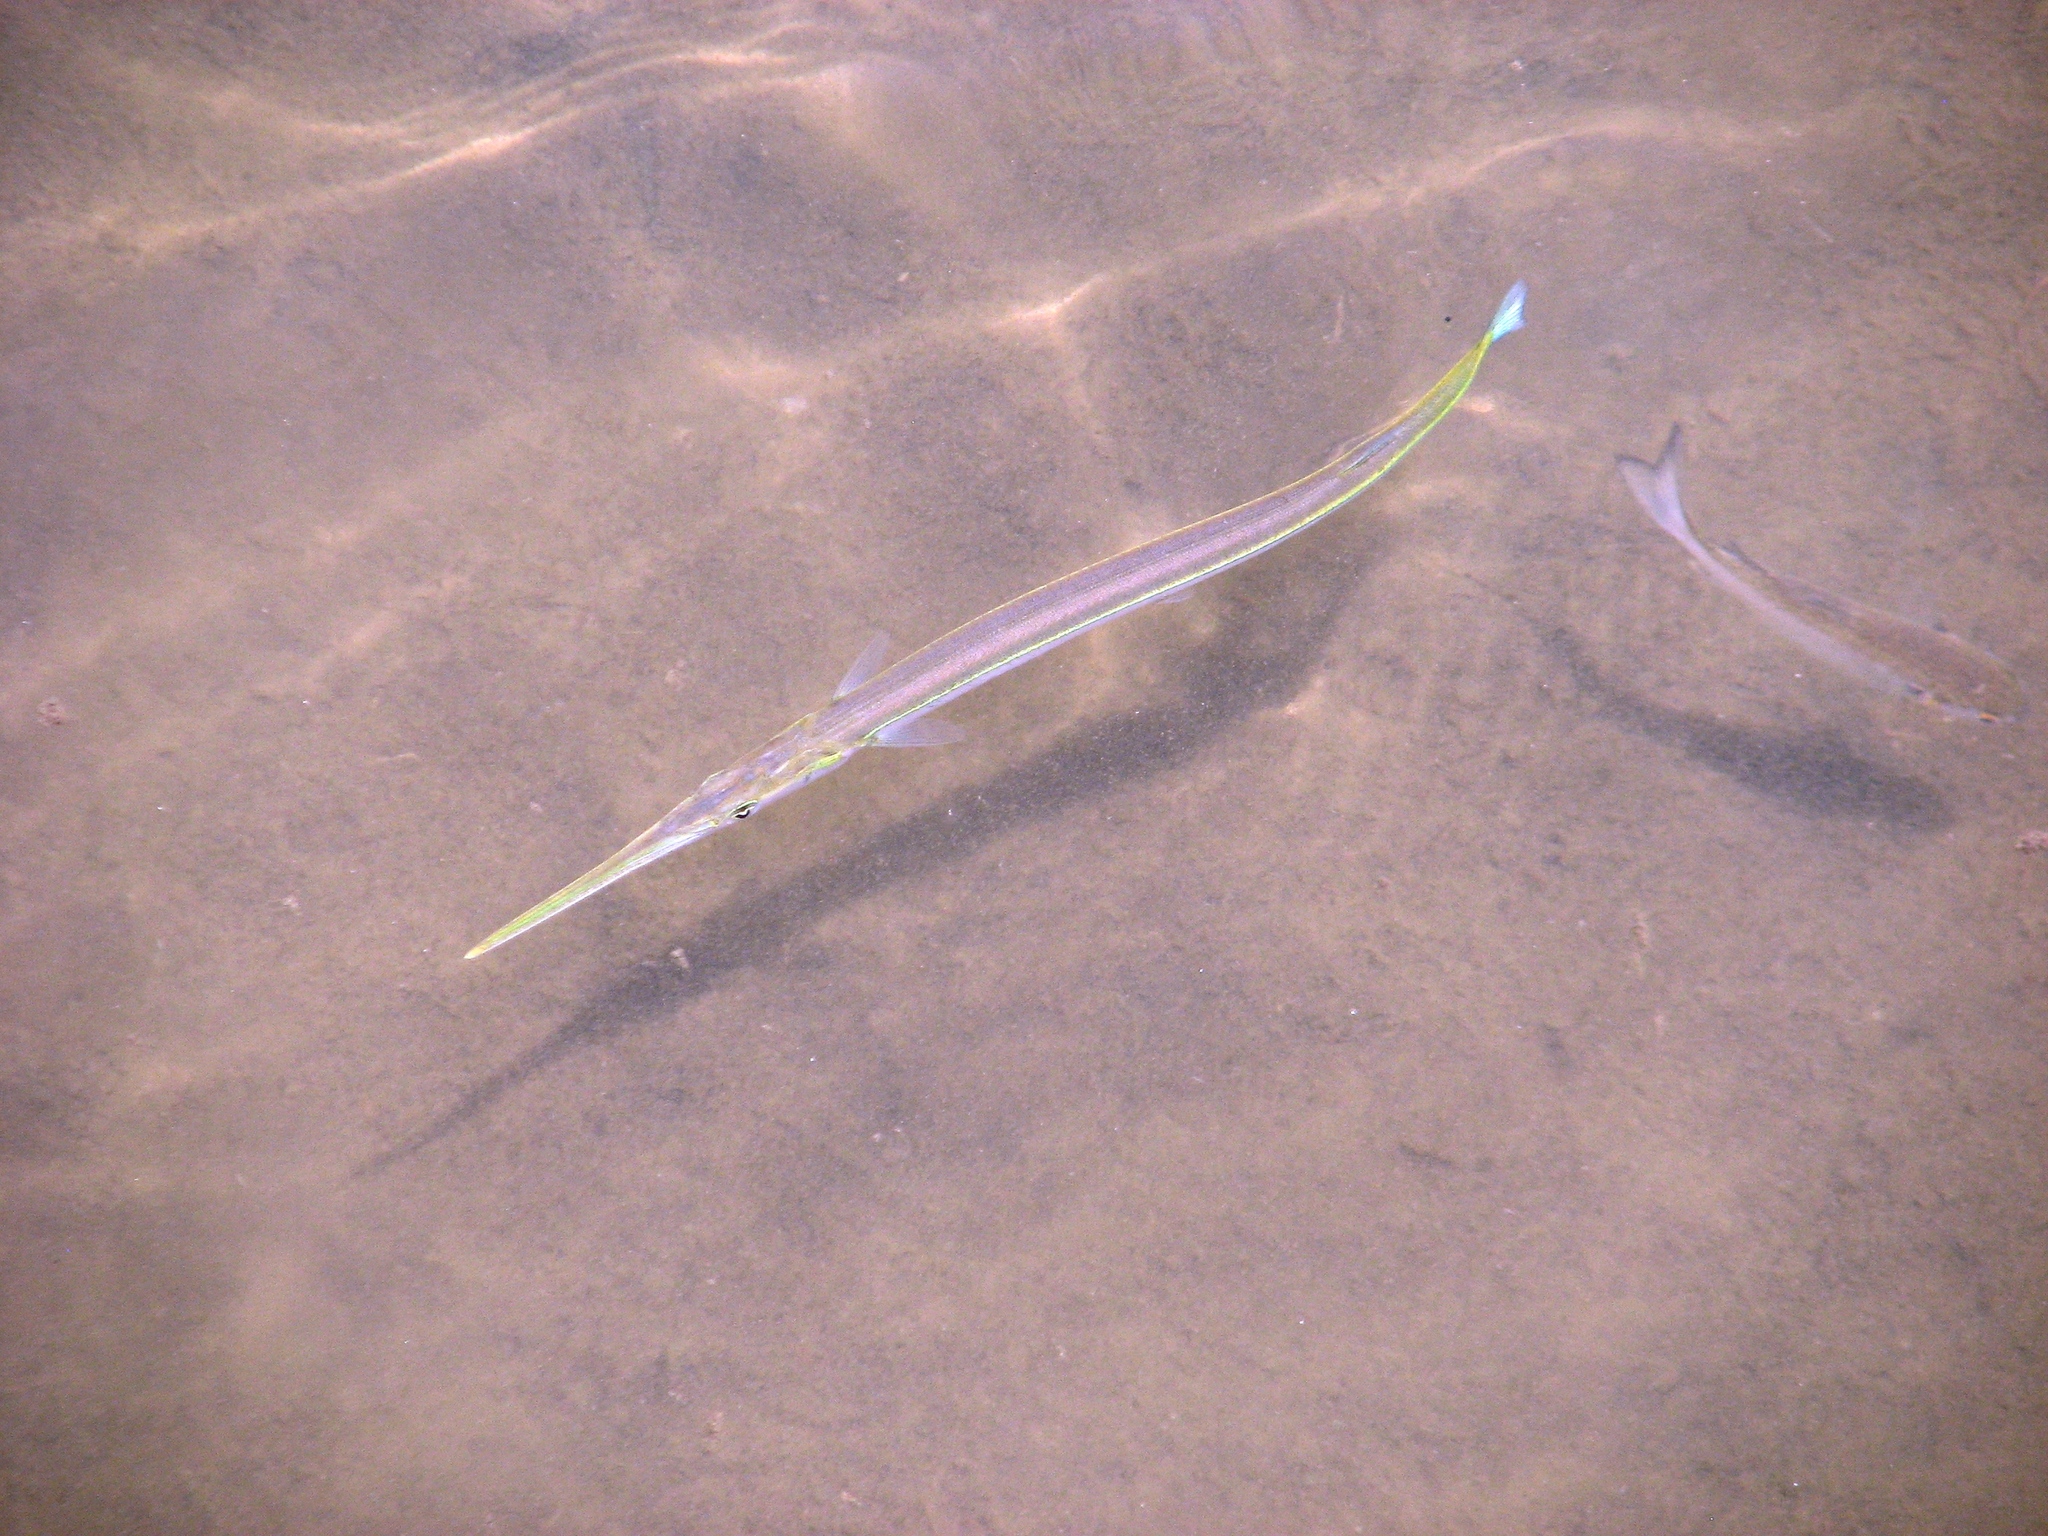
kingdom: Animalia
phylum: Chordata
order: Beloniformes
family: Belonidae
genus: Strongylura
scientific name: Strongylura marina
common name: Atlantic needlefish
